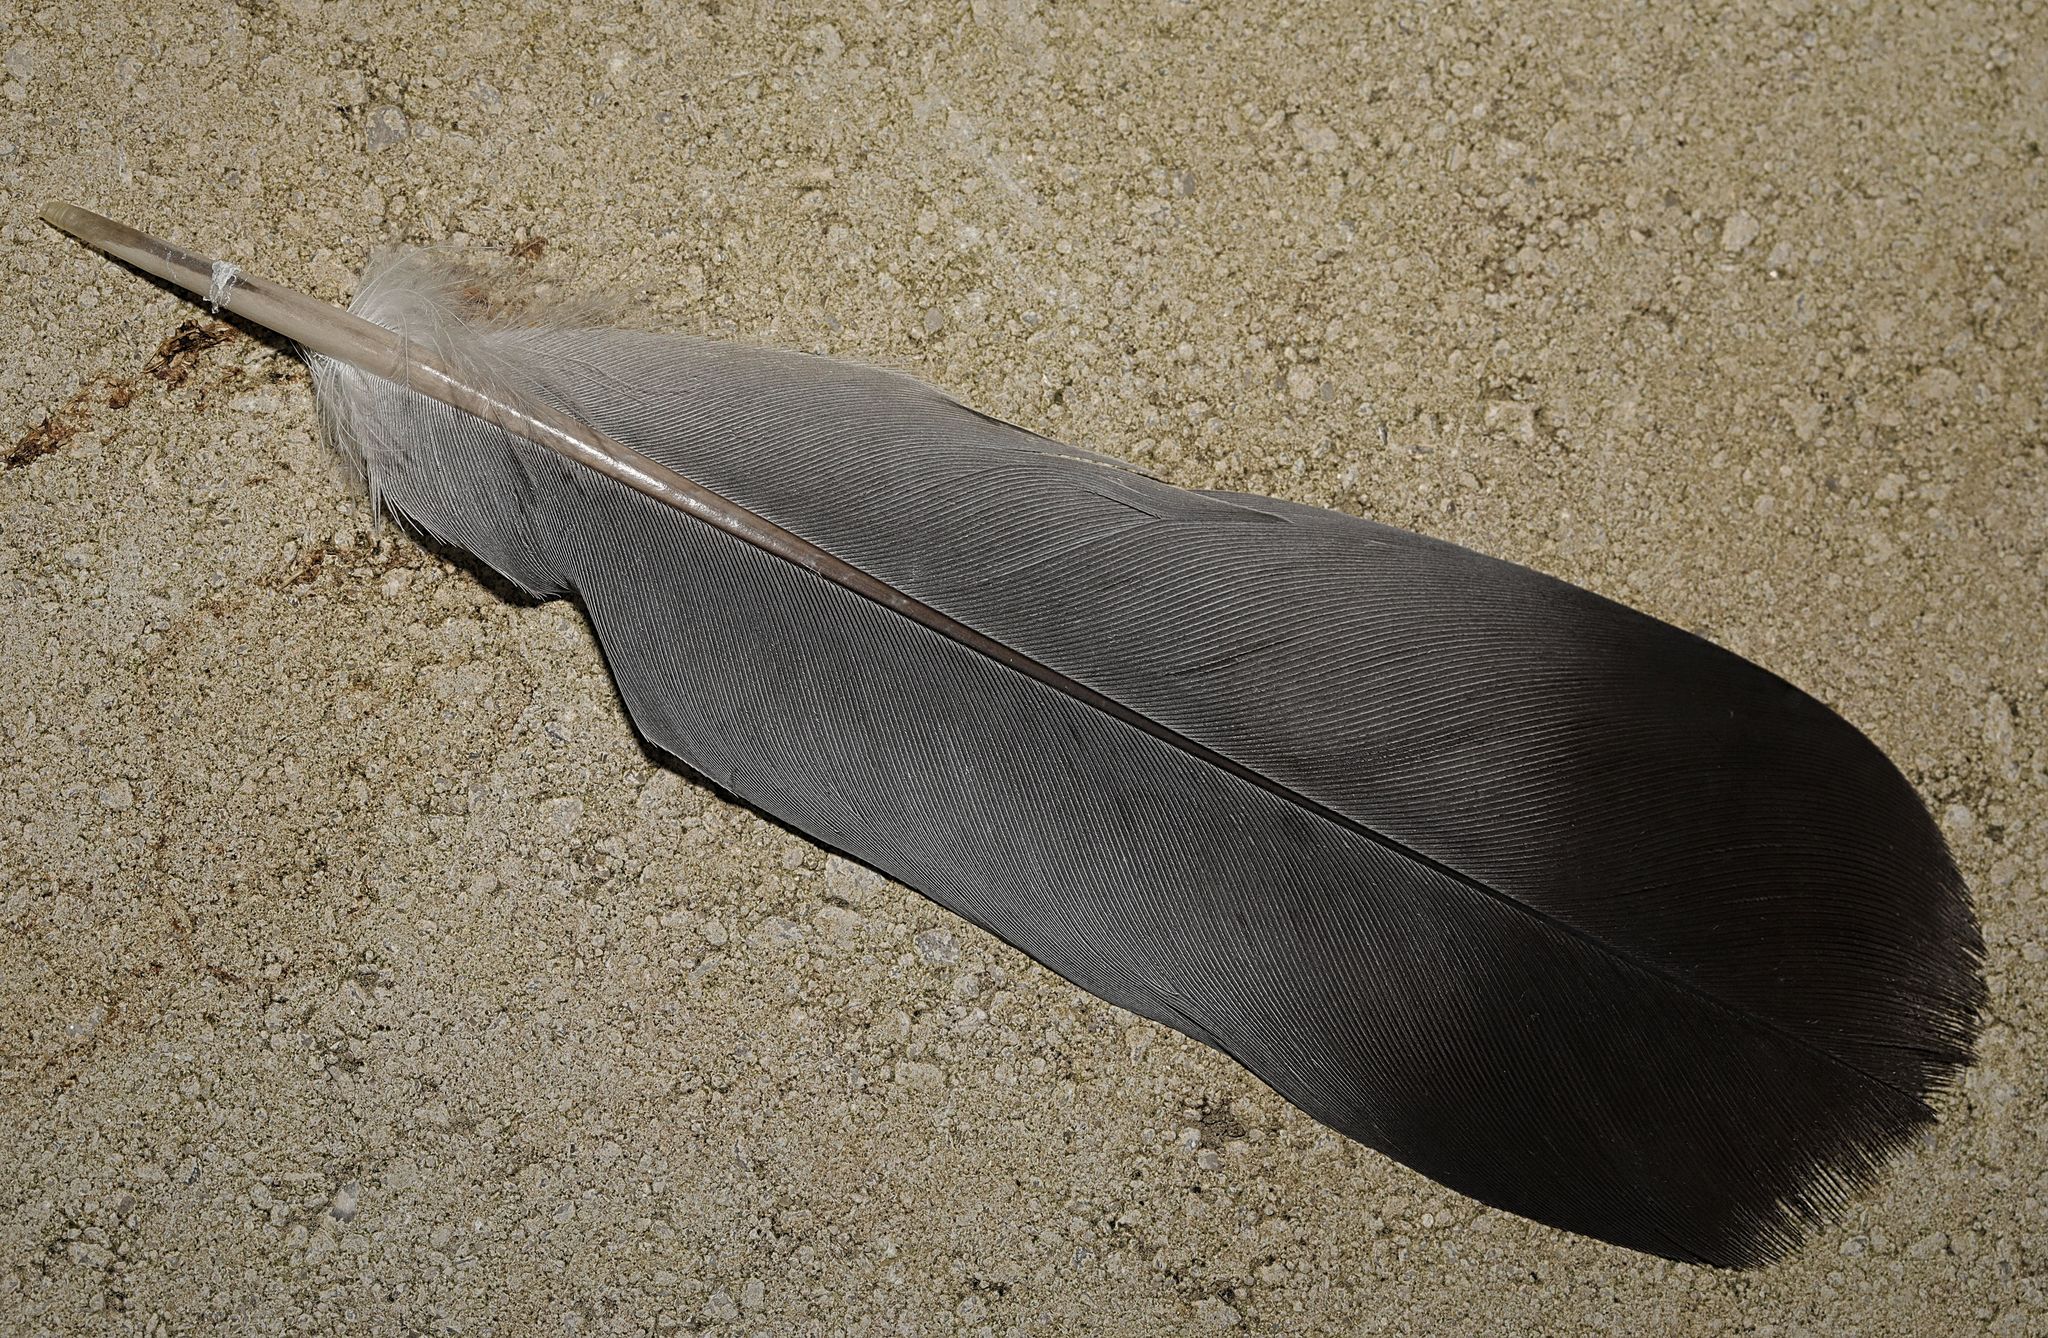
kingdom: Animalia
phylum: Chordata
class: Aves
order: Columbiformes
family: Columbidae
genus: Columba
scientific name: Columba livia
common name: Rock pigeon
